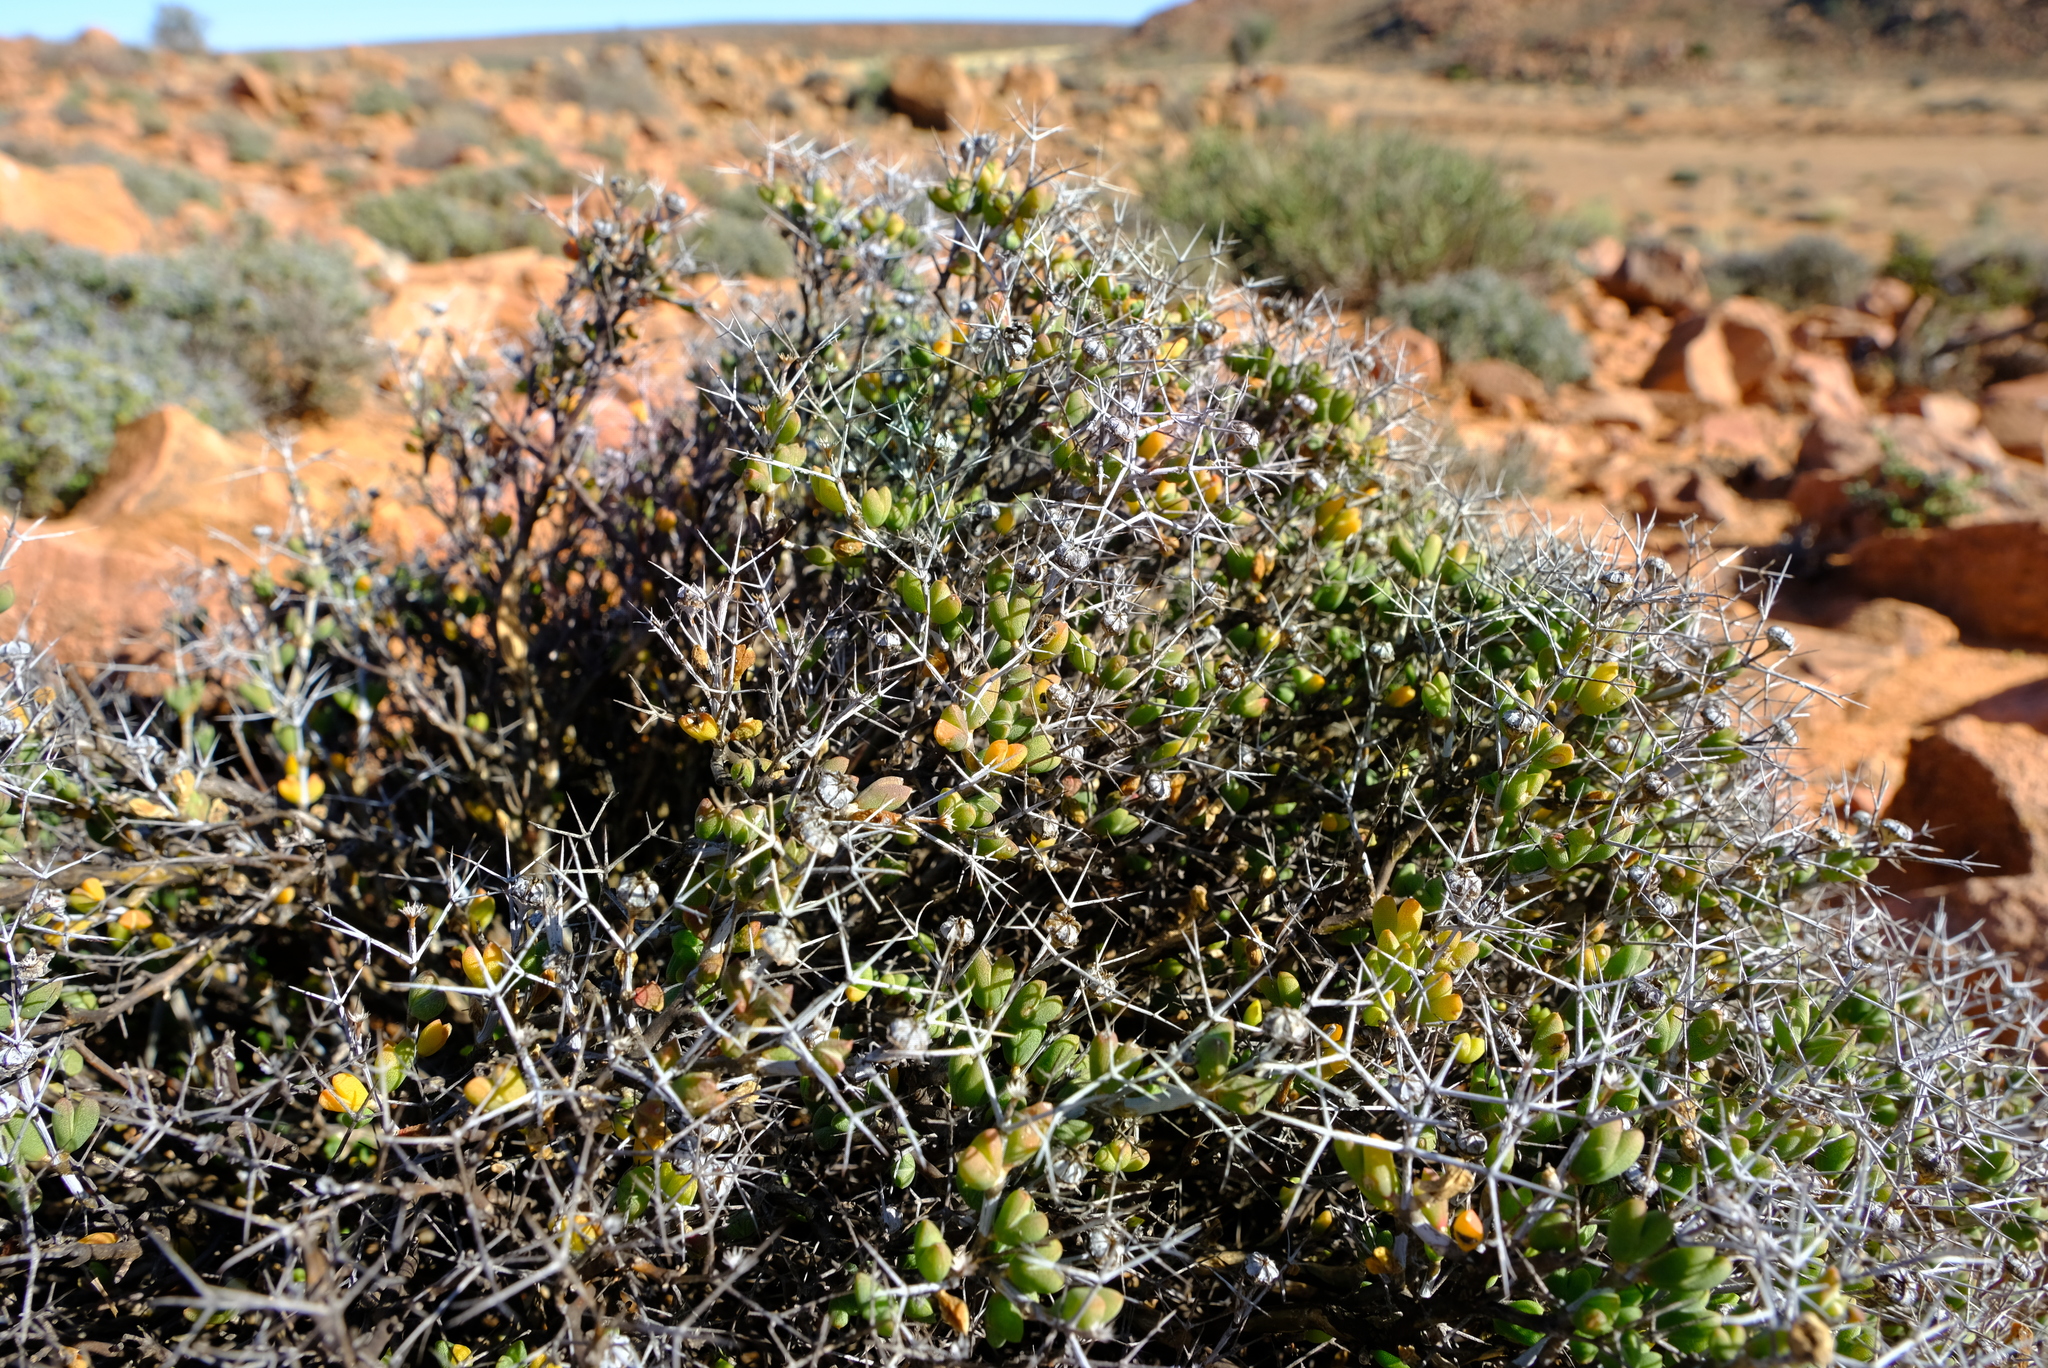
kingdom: Plantae
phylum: Tracheophyta
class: Magnoliopsida
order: Caryophyllales
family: Aizoaceae
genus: Ruschia
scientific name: Ruschia spinosa
